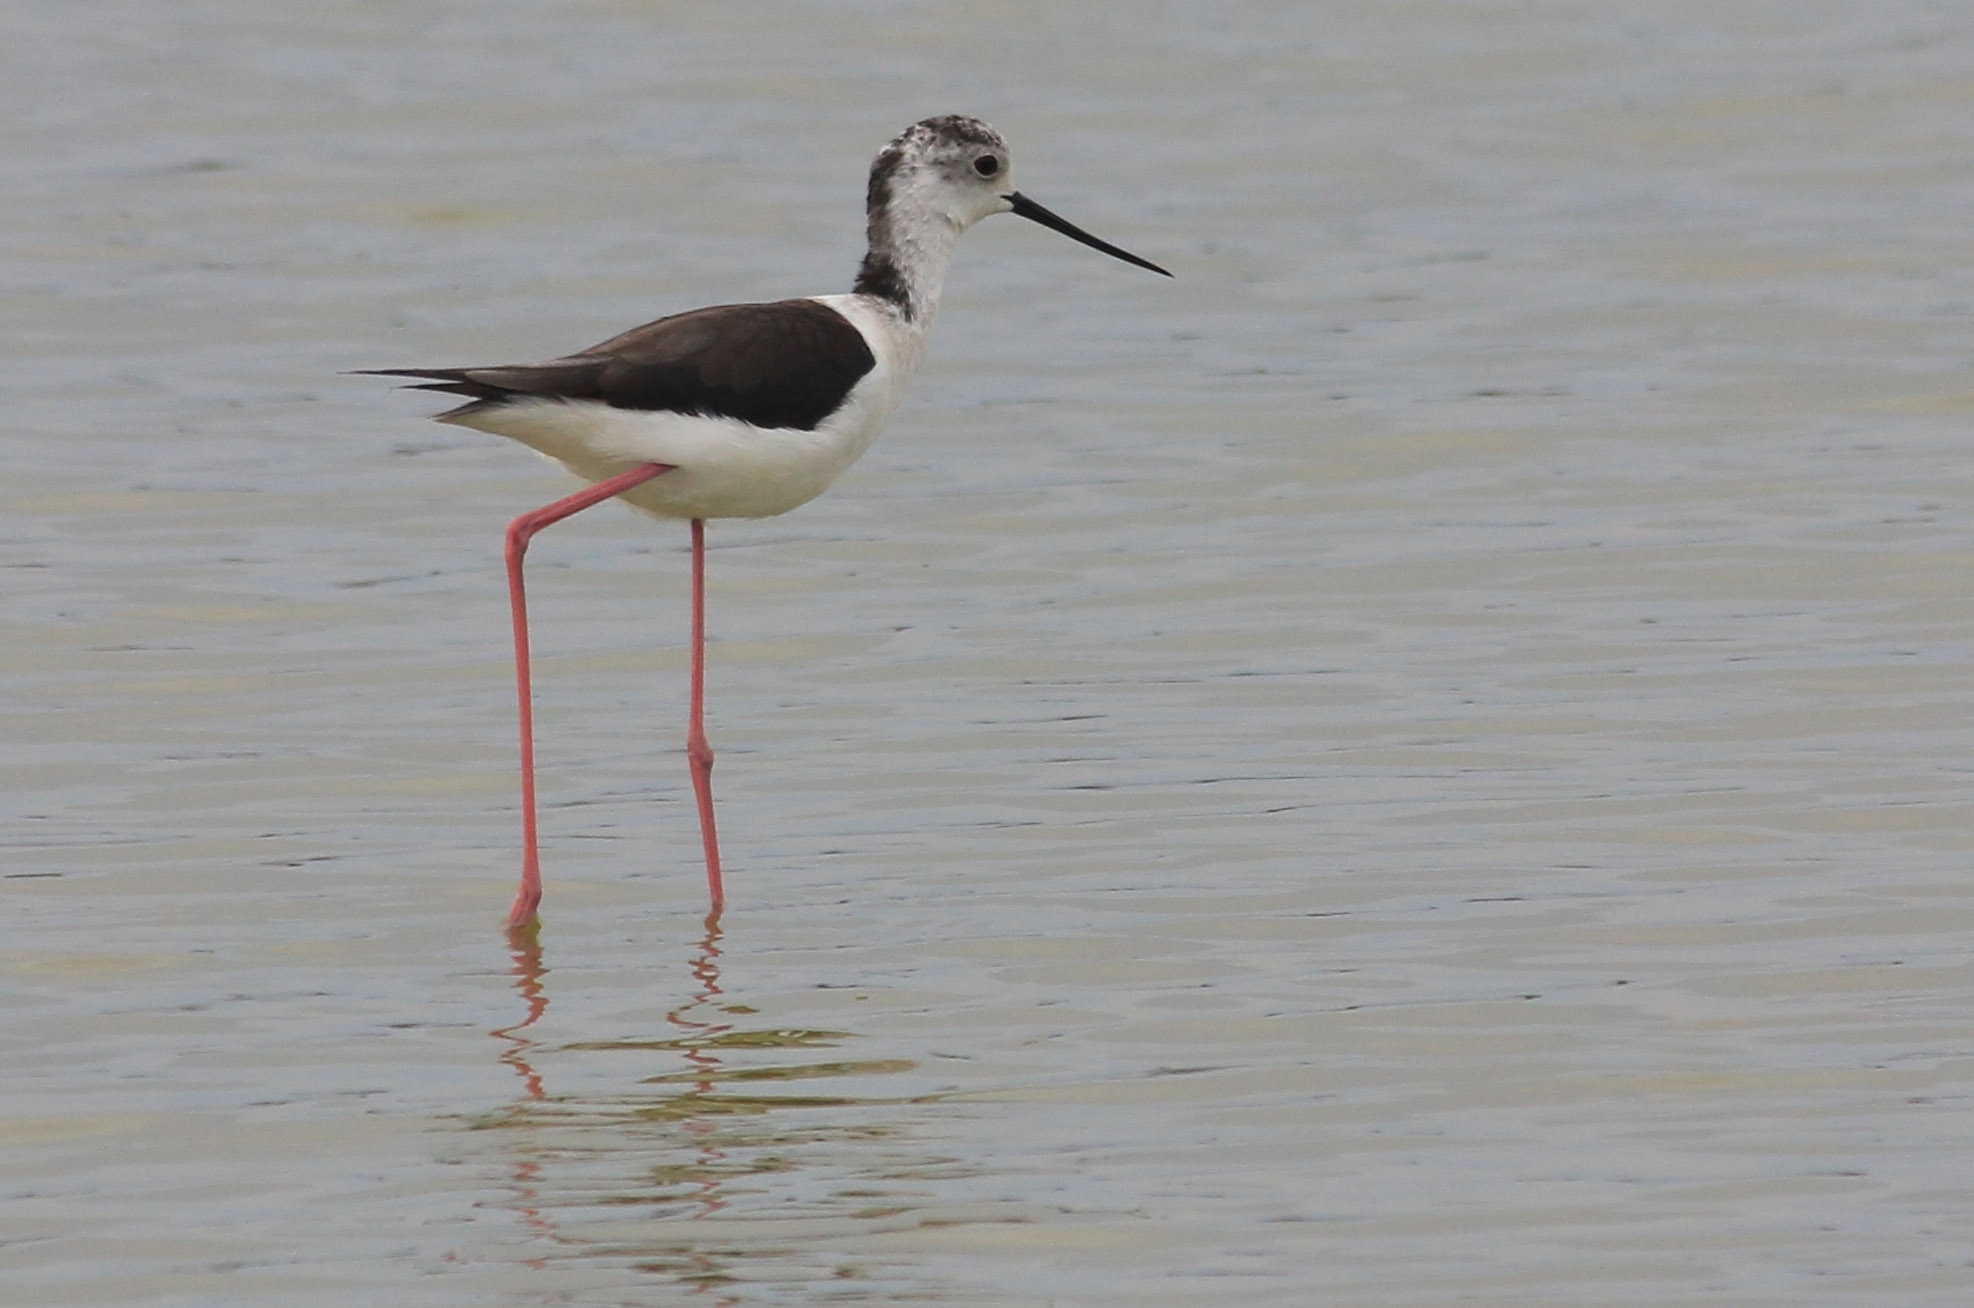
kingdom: Animalia
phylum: Chordata
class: Aves
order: Charadriiformes
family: Recurvirostridae
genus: Himantopus
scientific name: Himantopus himantopus
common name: Black-winged stilt
